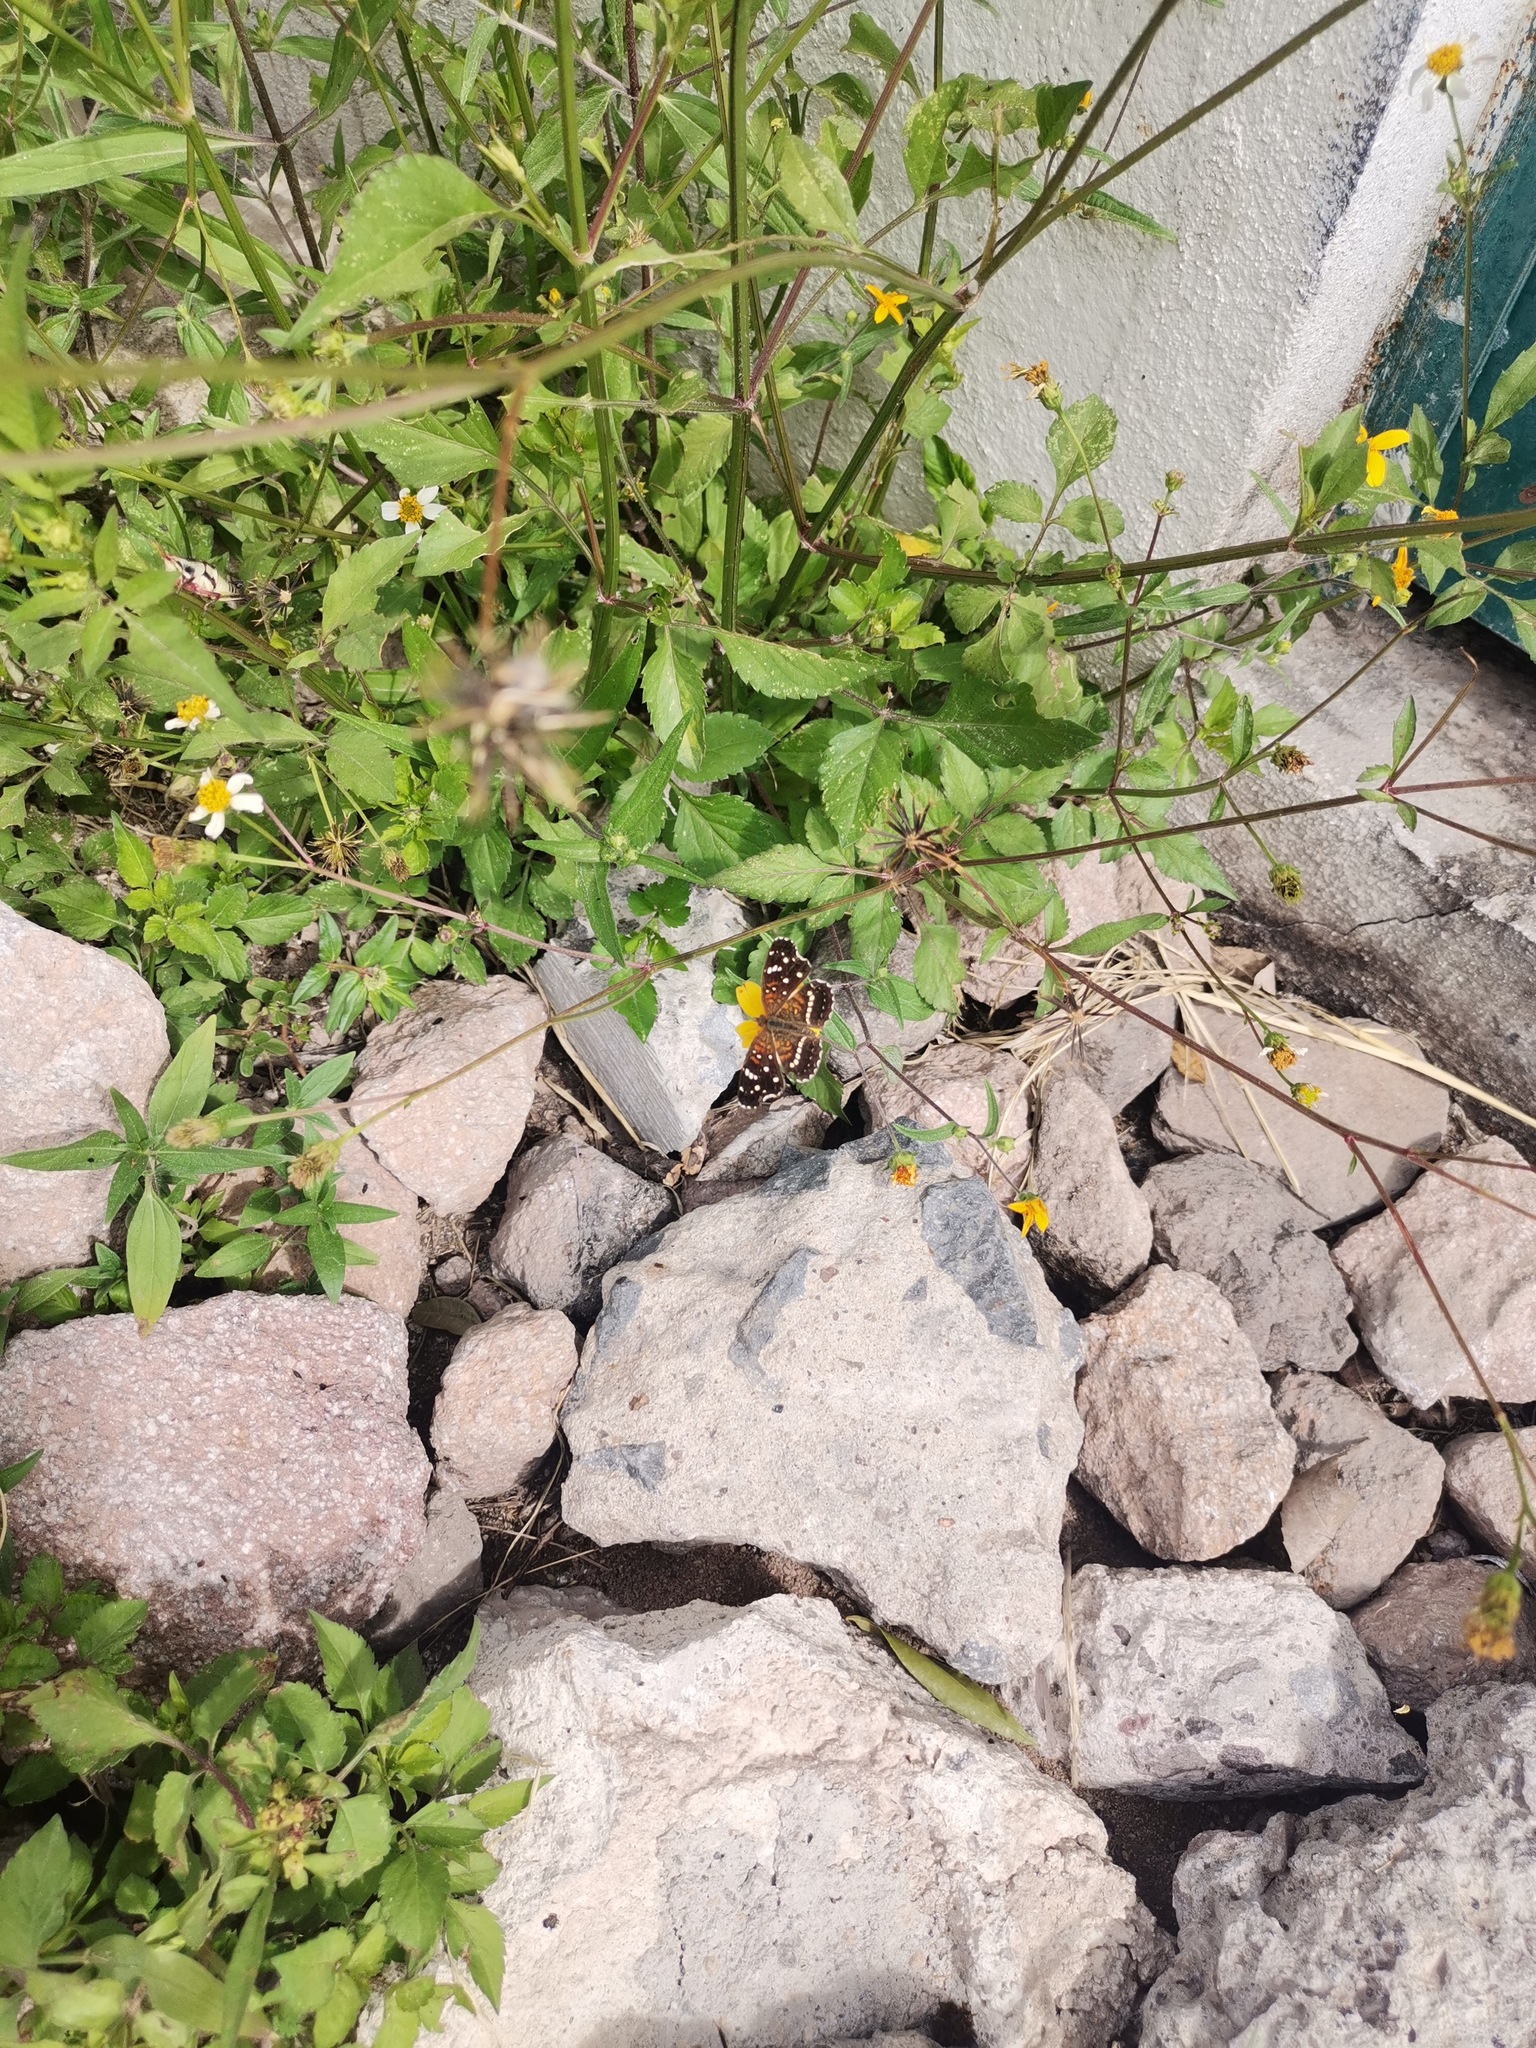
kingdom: Animalia
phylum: Arthropoda
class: Insecta
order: Lepidoptera
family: Nymphalidae
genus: Anthanassa
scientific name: Anthanassa texana
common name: Texan crescent
